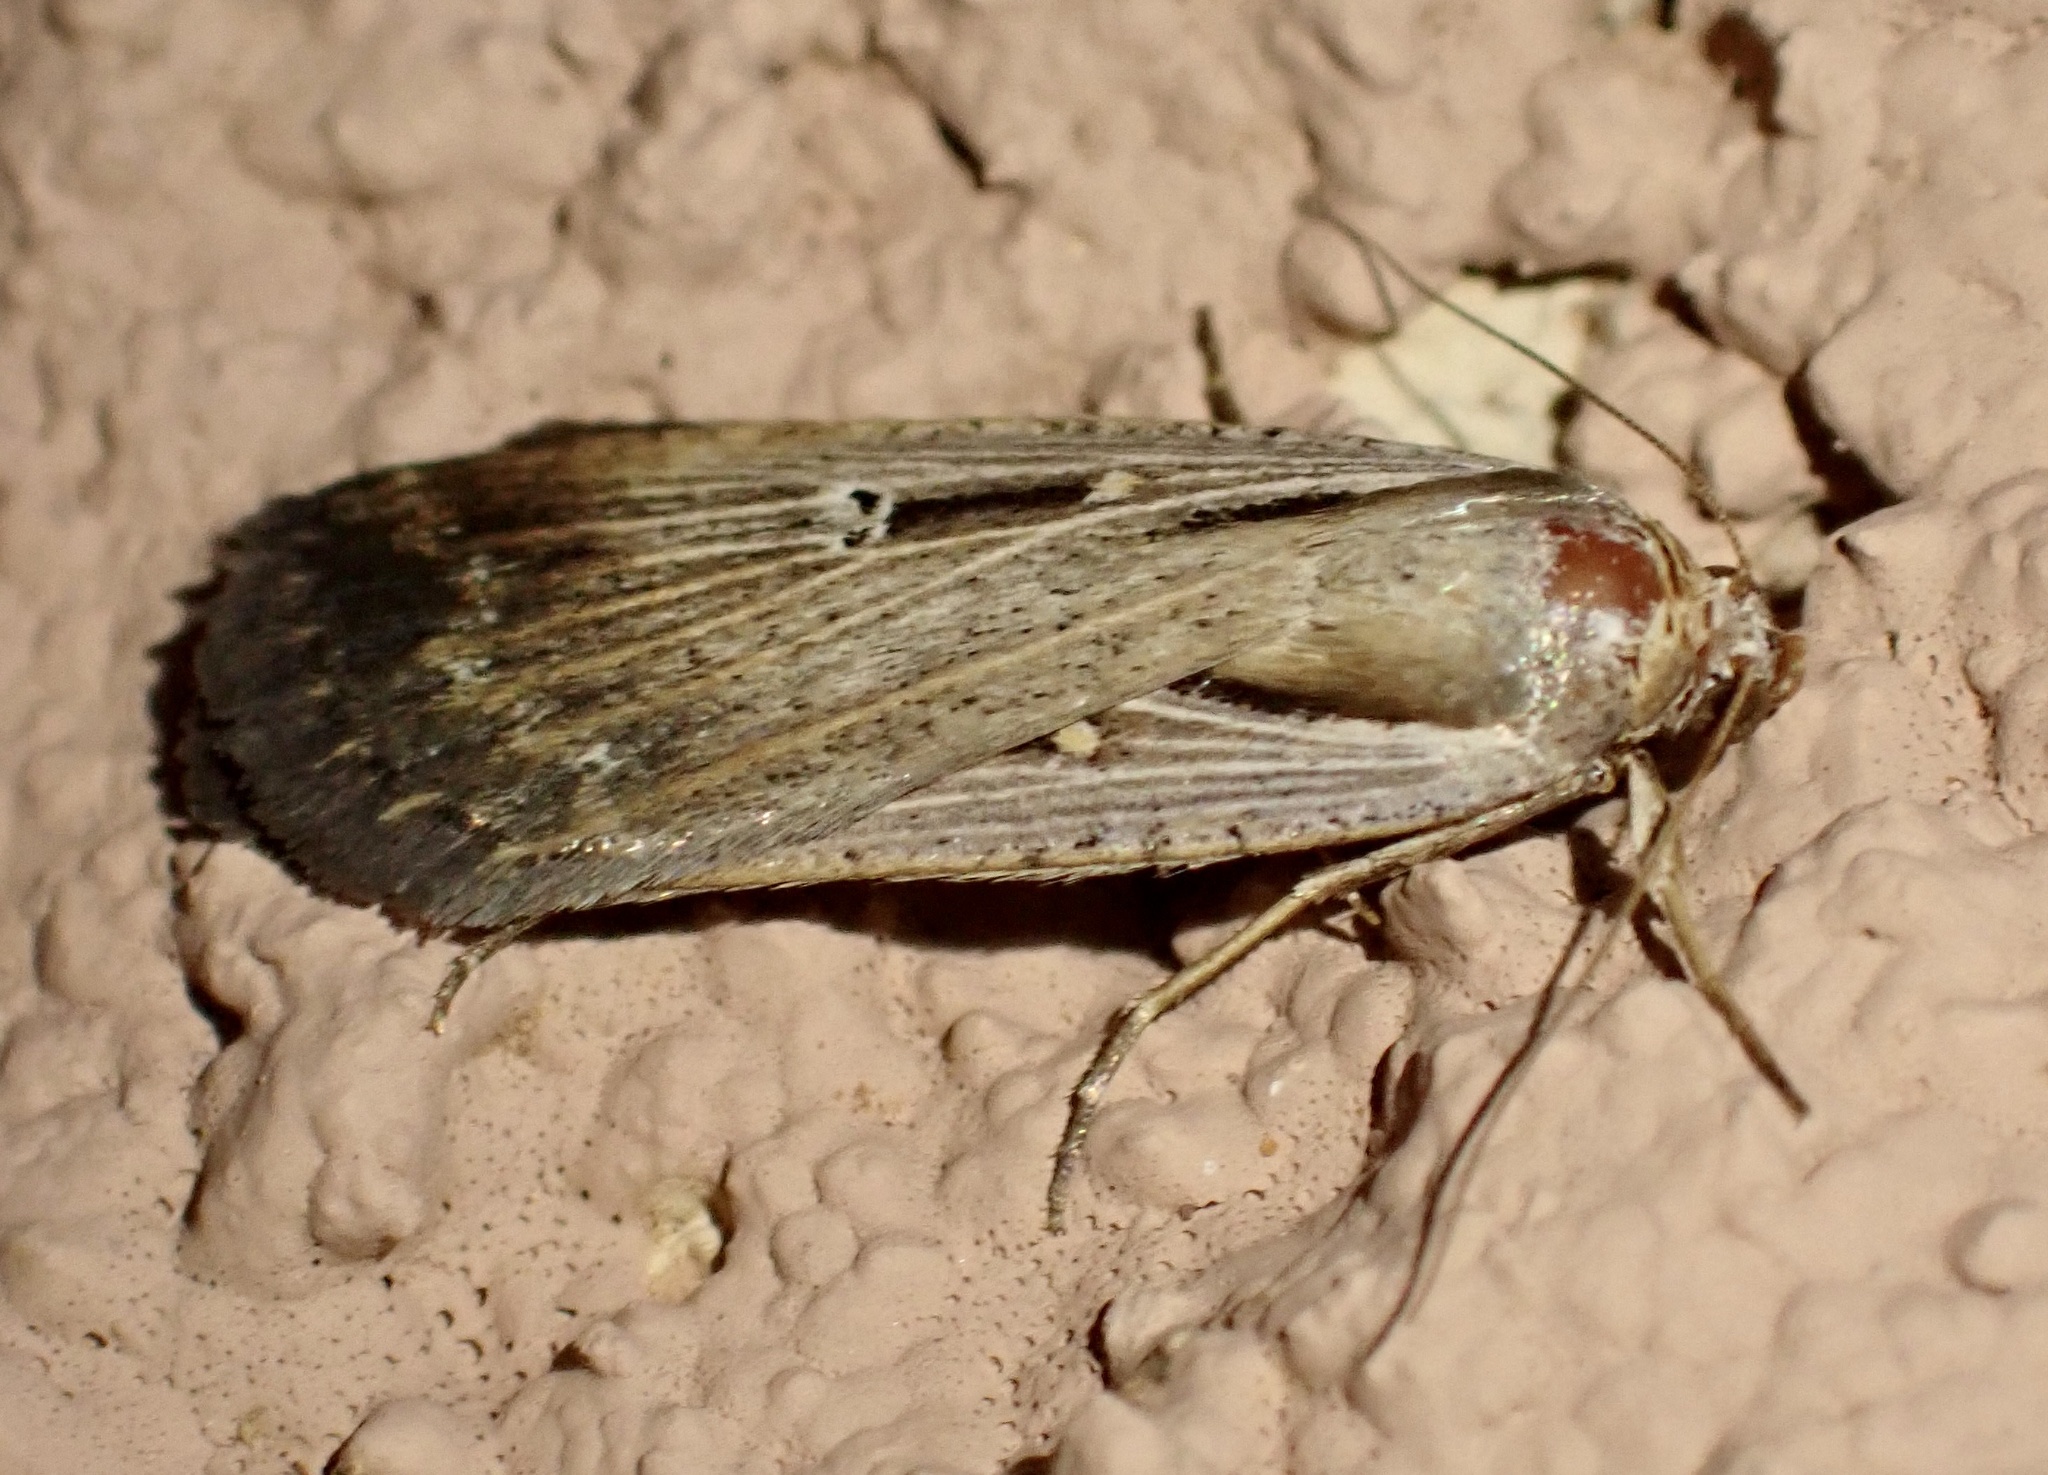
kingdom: Animalia
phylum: Arthropoda
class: Insecta
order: Lepidoptera
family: Noctuidae
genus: Tathorhynchus
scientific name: Tathorhynchus exsiccata
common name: Levant blackneck moth
